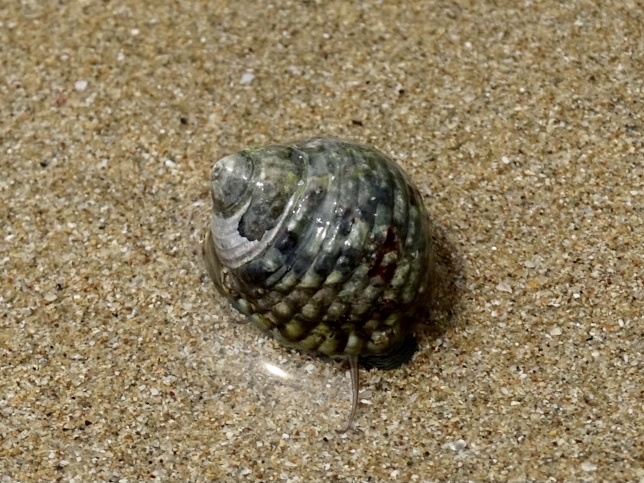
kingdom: Animalia
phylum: Mollusca
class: Gastropoda
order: Trochida
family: Trochidae
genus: Monodonta
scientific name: Monodonta labio
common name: Labio
